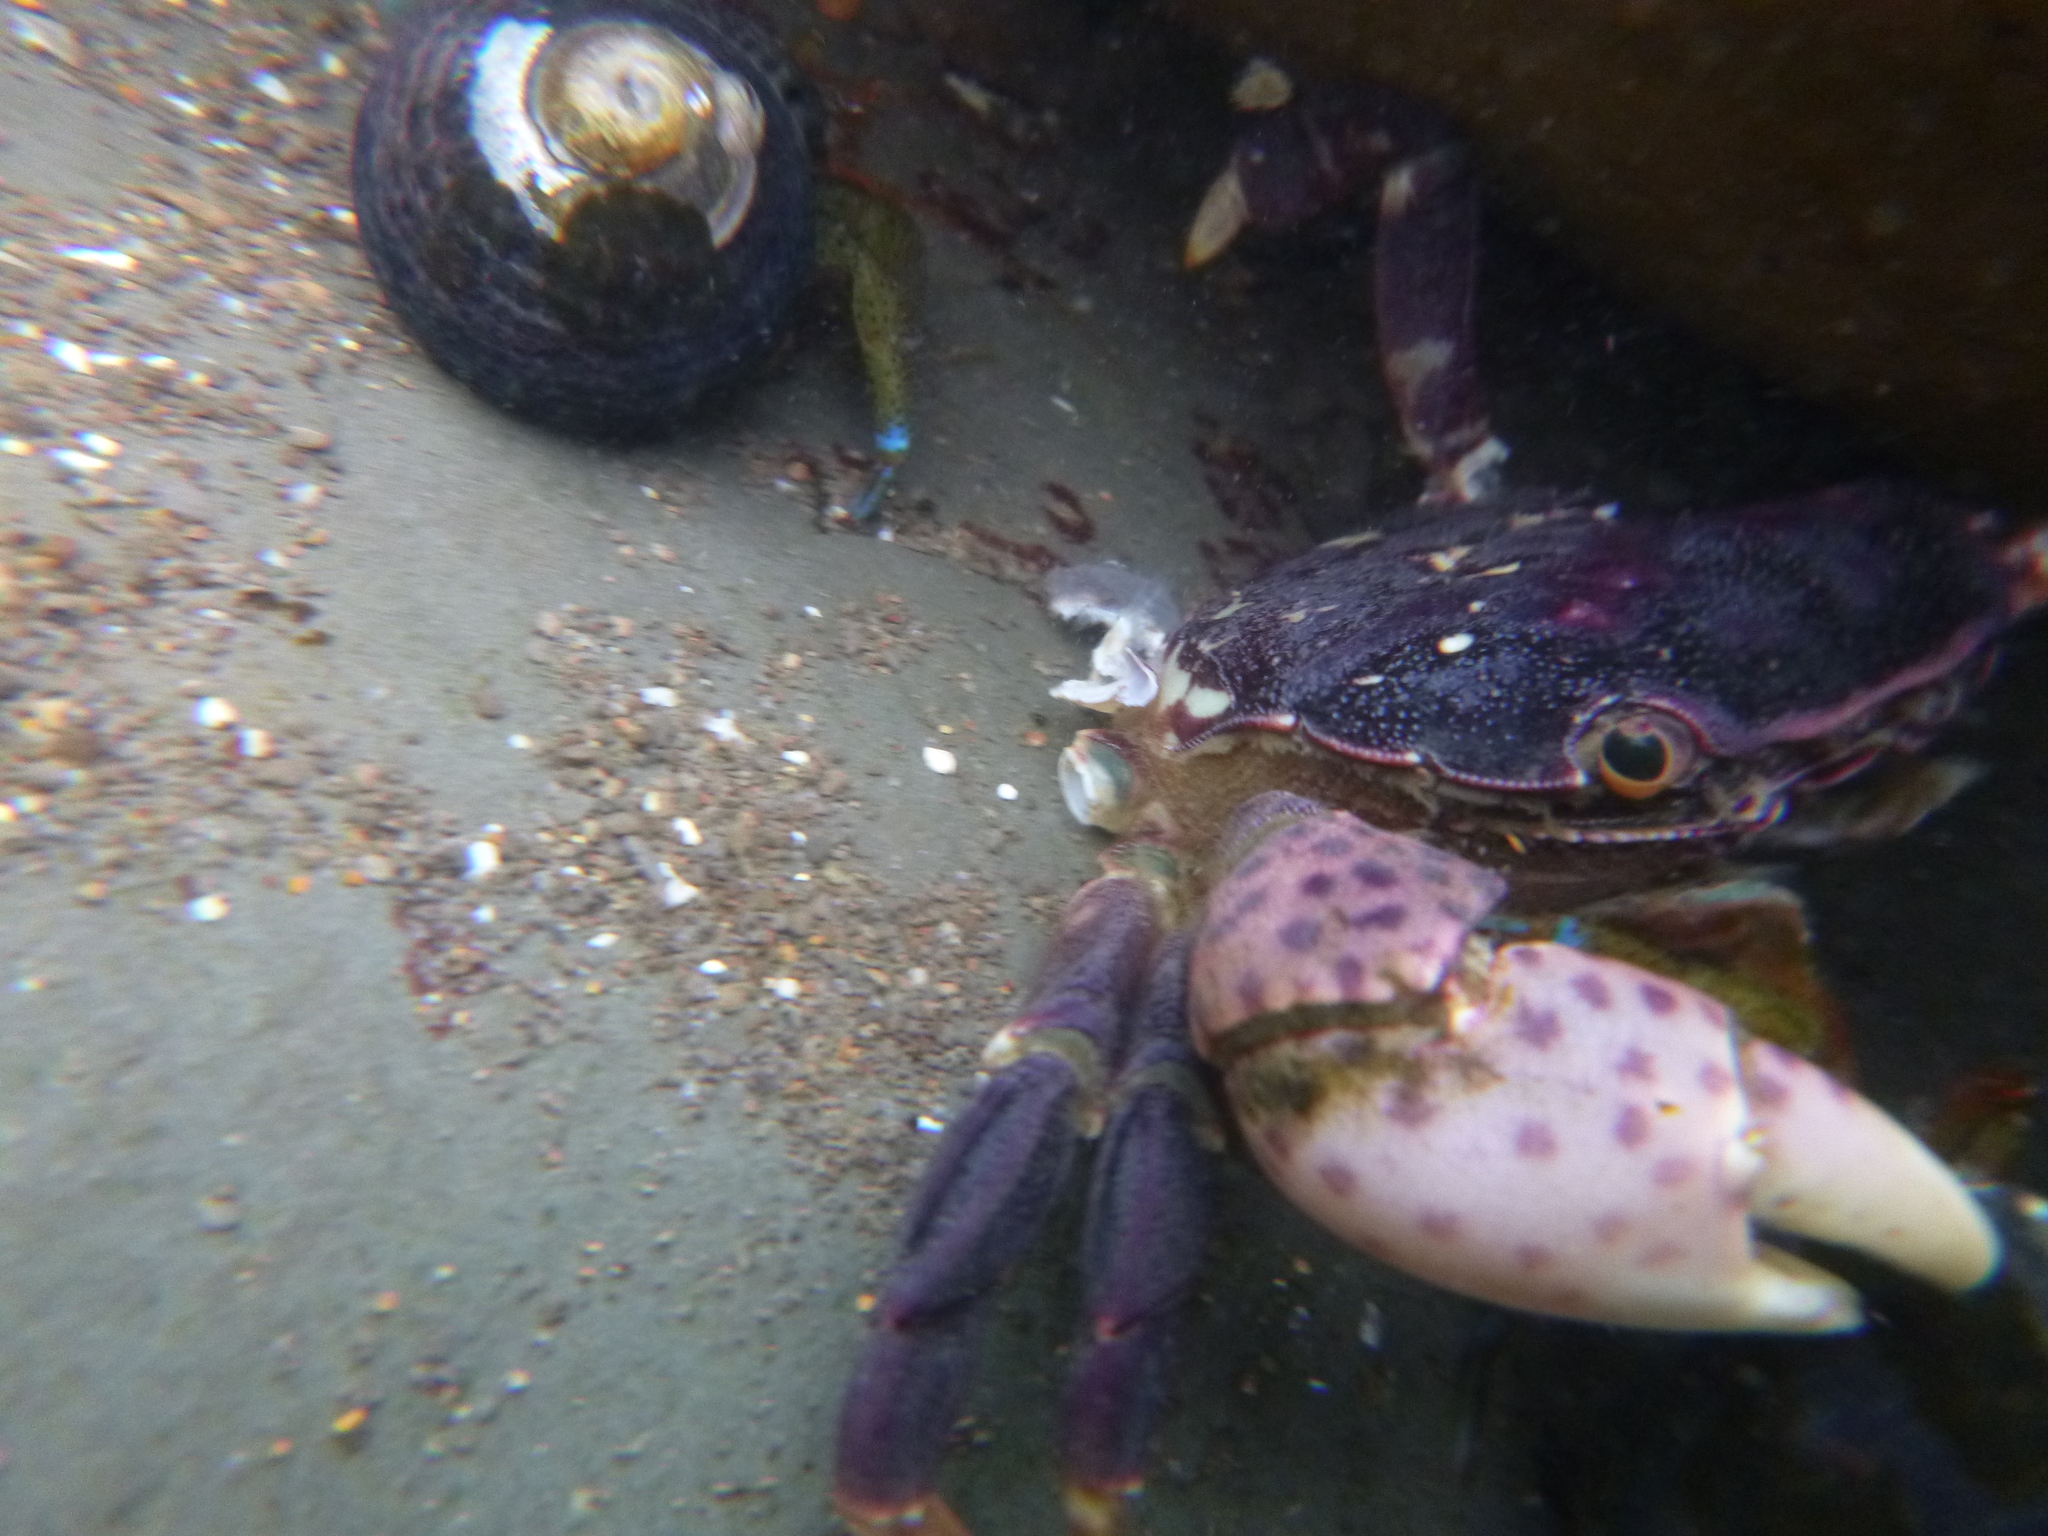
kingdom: Animalia
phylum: Arthropoda
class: Malacostraca
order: Decapoda
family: Varunidae
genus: Hemigrapsus
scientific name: Hemigrapsus nudus
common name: Purple shore crab
